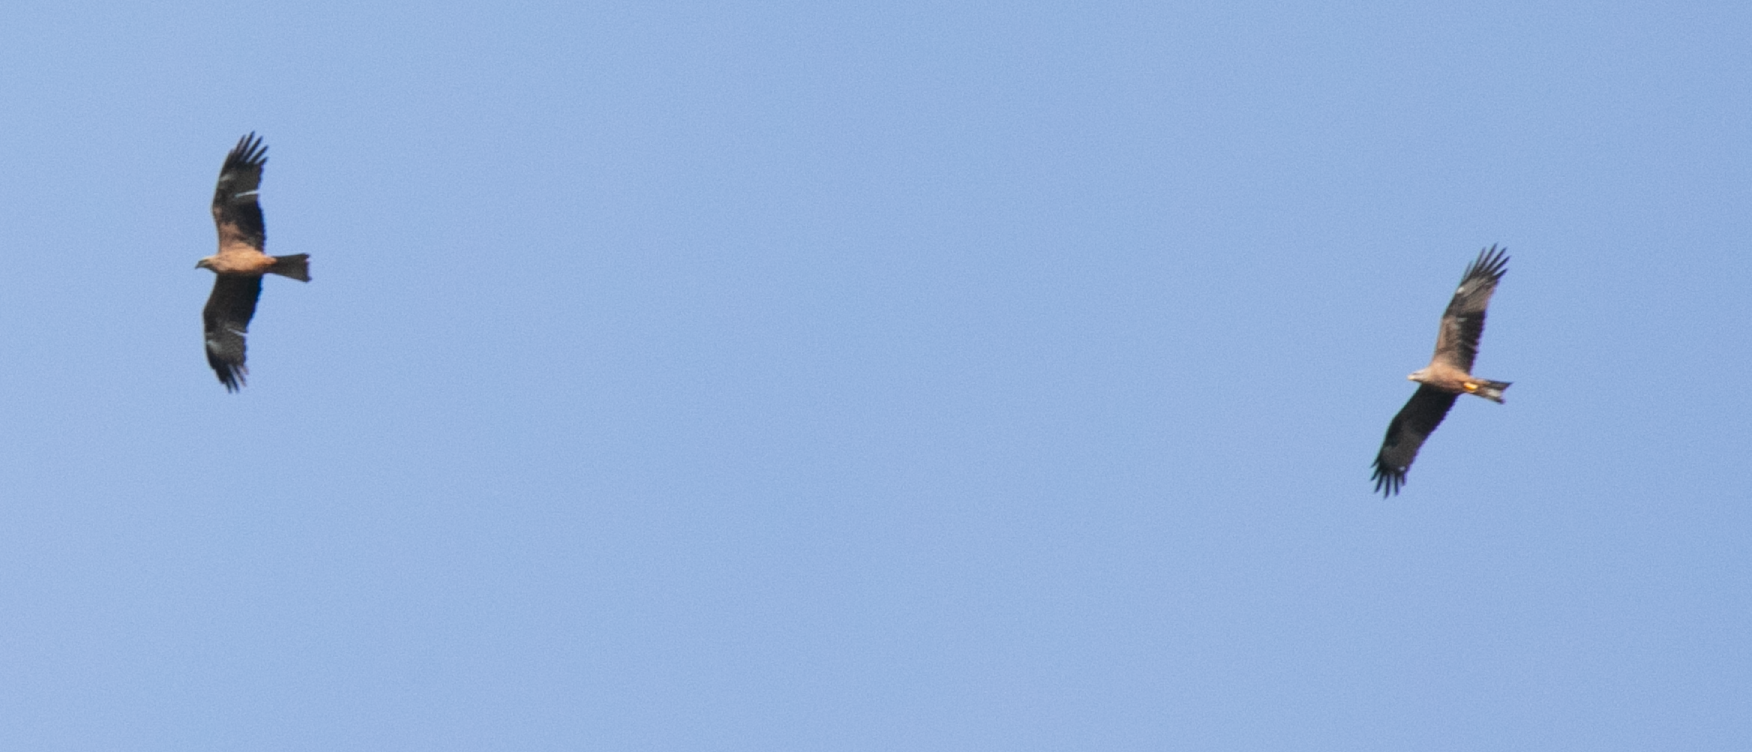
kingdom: Animalia
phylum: Chordata
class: Aves
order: Accipitriformes
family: Accipitridae
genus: Milvus
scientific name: Milvus migrans
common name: Black kite
